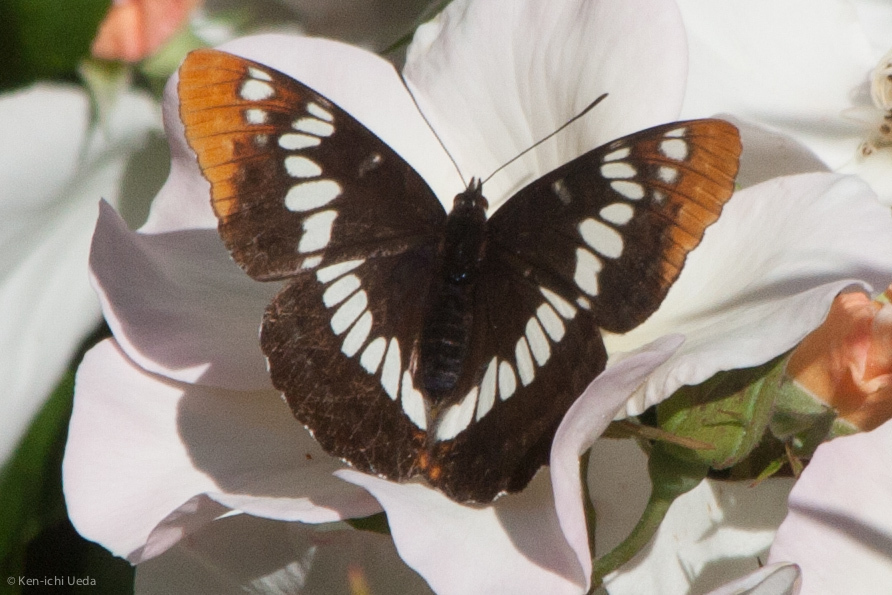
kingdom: Animalia
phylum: Arthropoda
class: Insecta
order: Lepidoptera
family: Nymphalidae
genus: Limenitis
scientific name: Limenitis lorquini
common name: Lorquin's admiral
